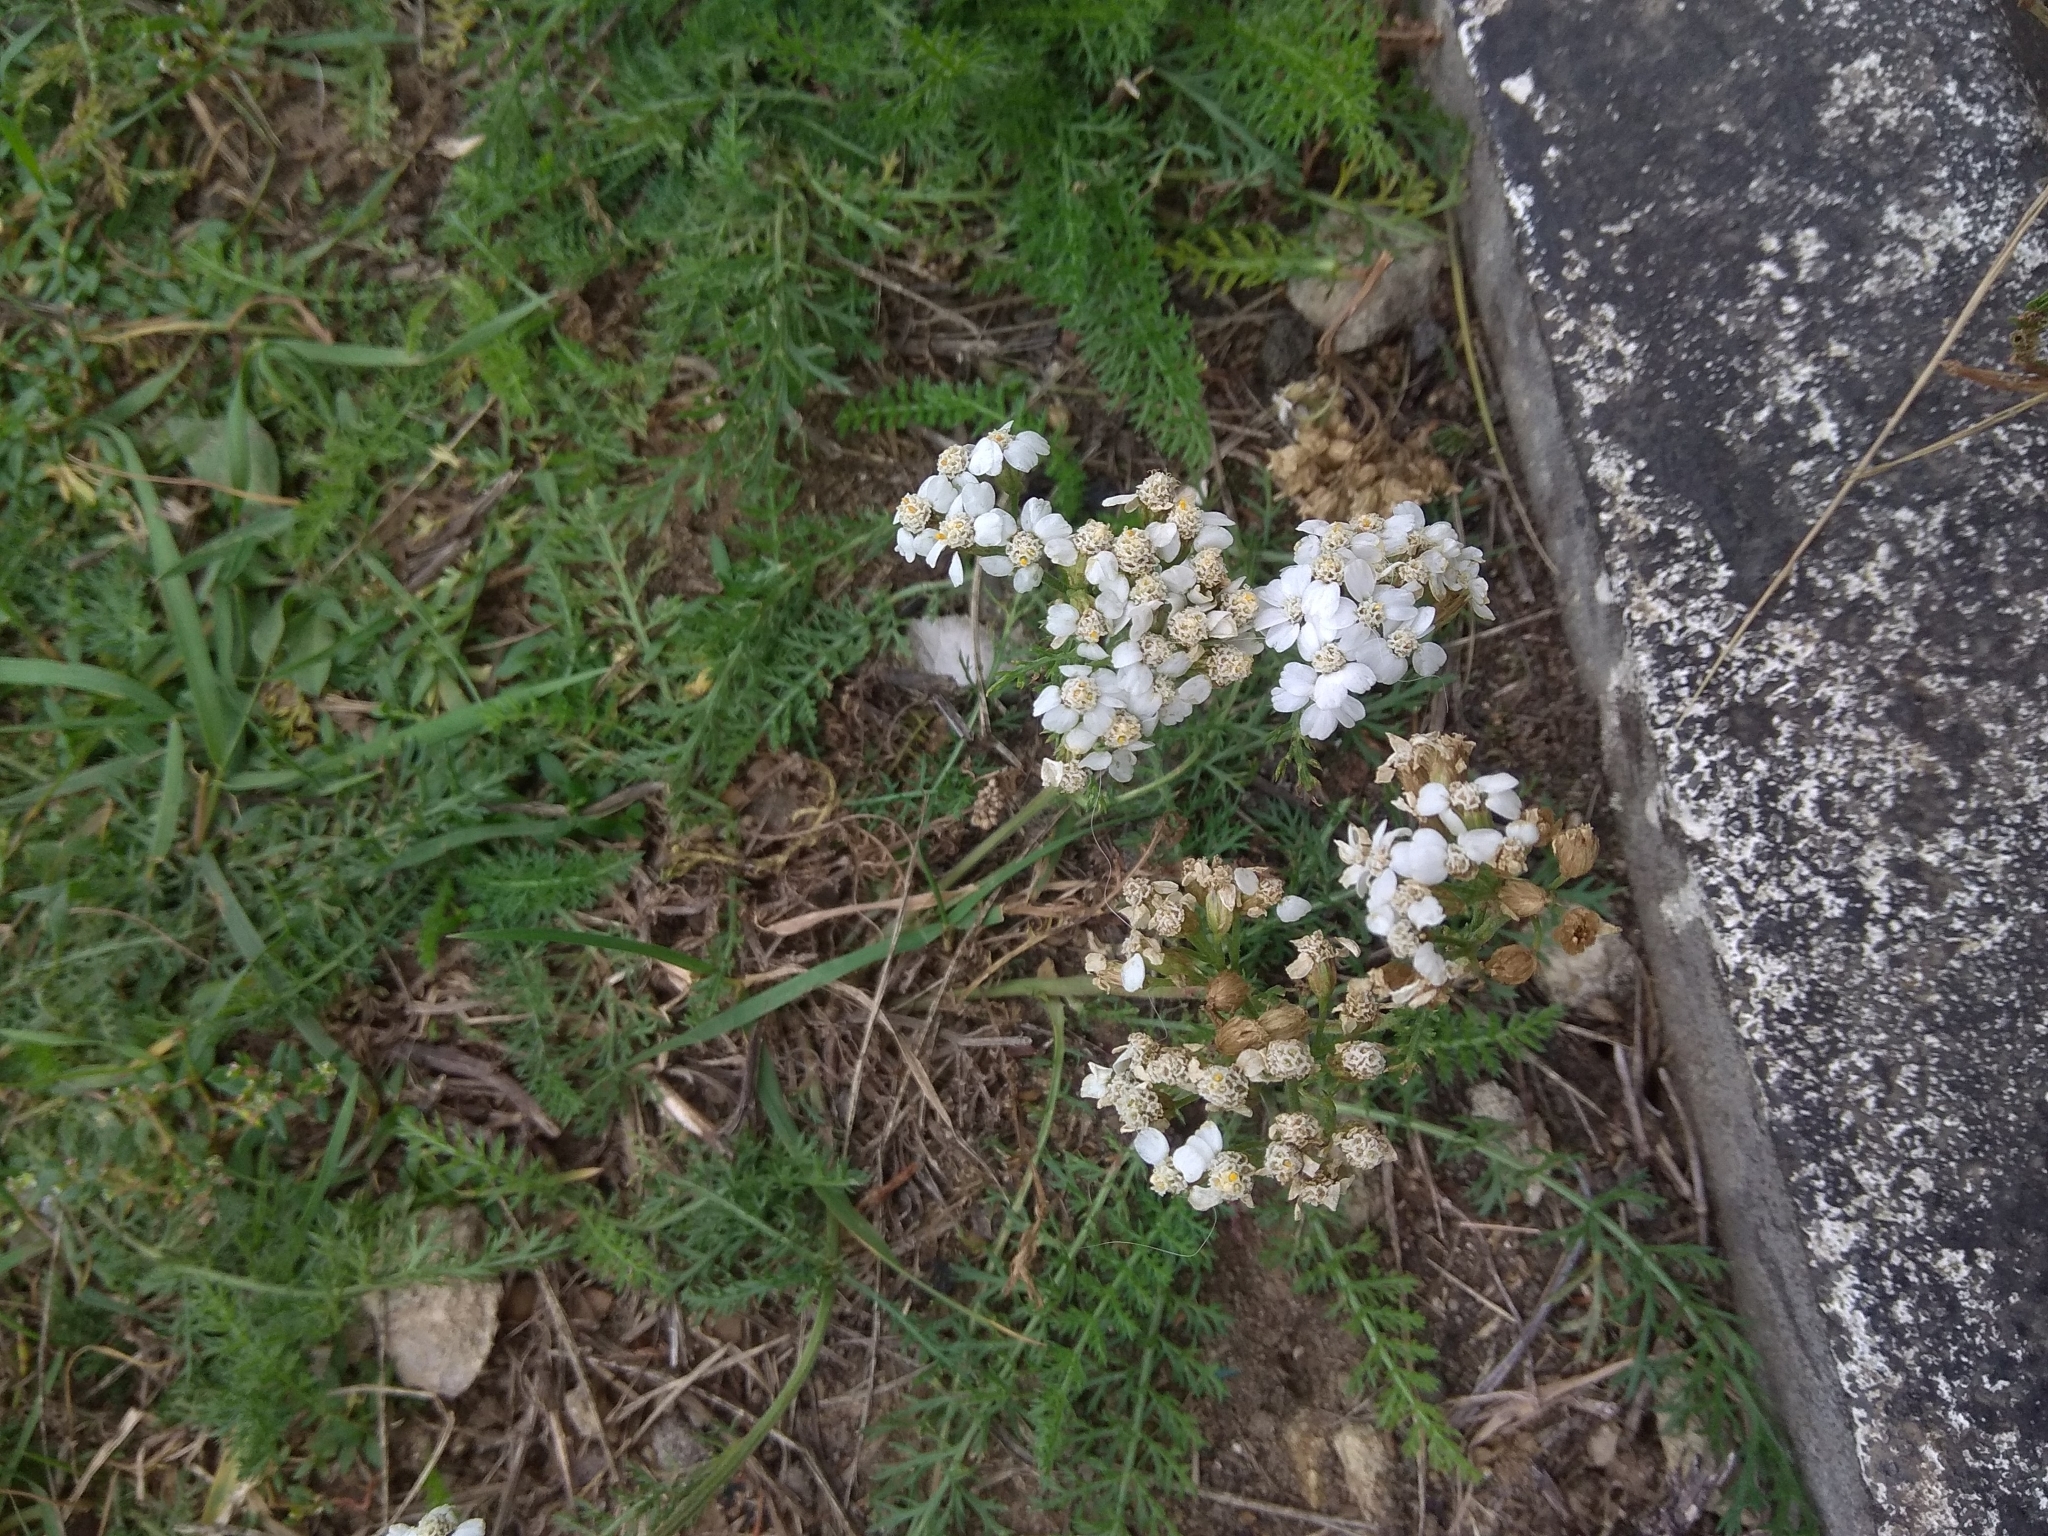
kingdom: Plantae
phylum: Tracheophyta
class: Magnoliopsida
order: Asterales
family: Asteraceae
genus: Achillea
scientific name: Achillea millefolium
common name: Yarrow
